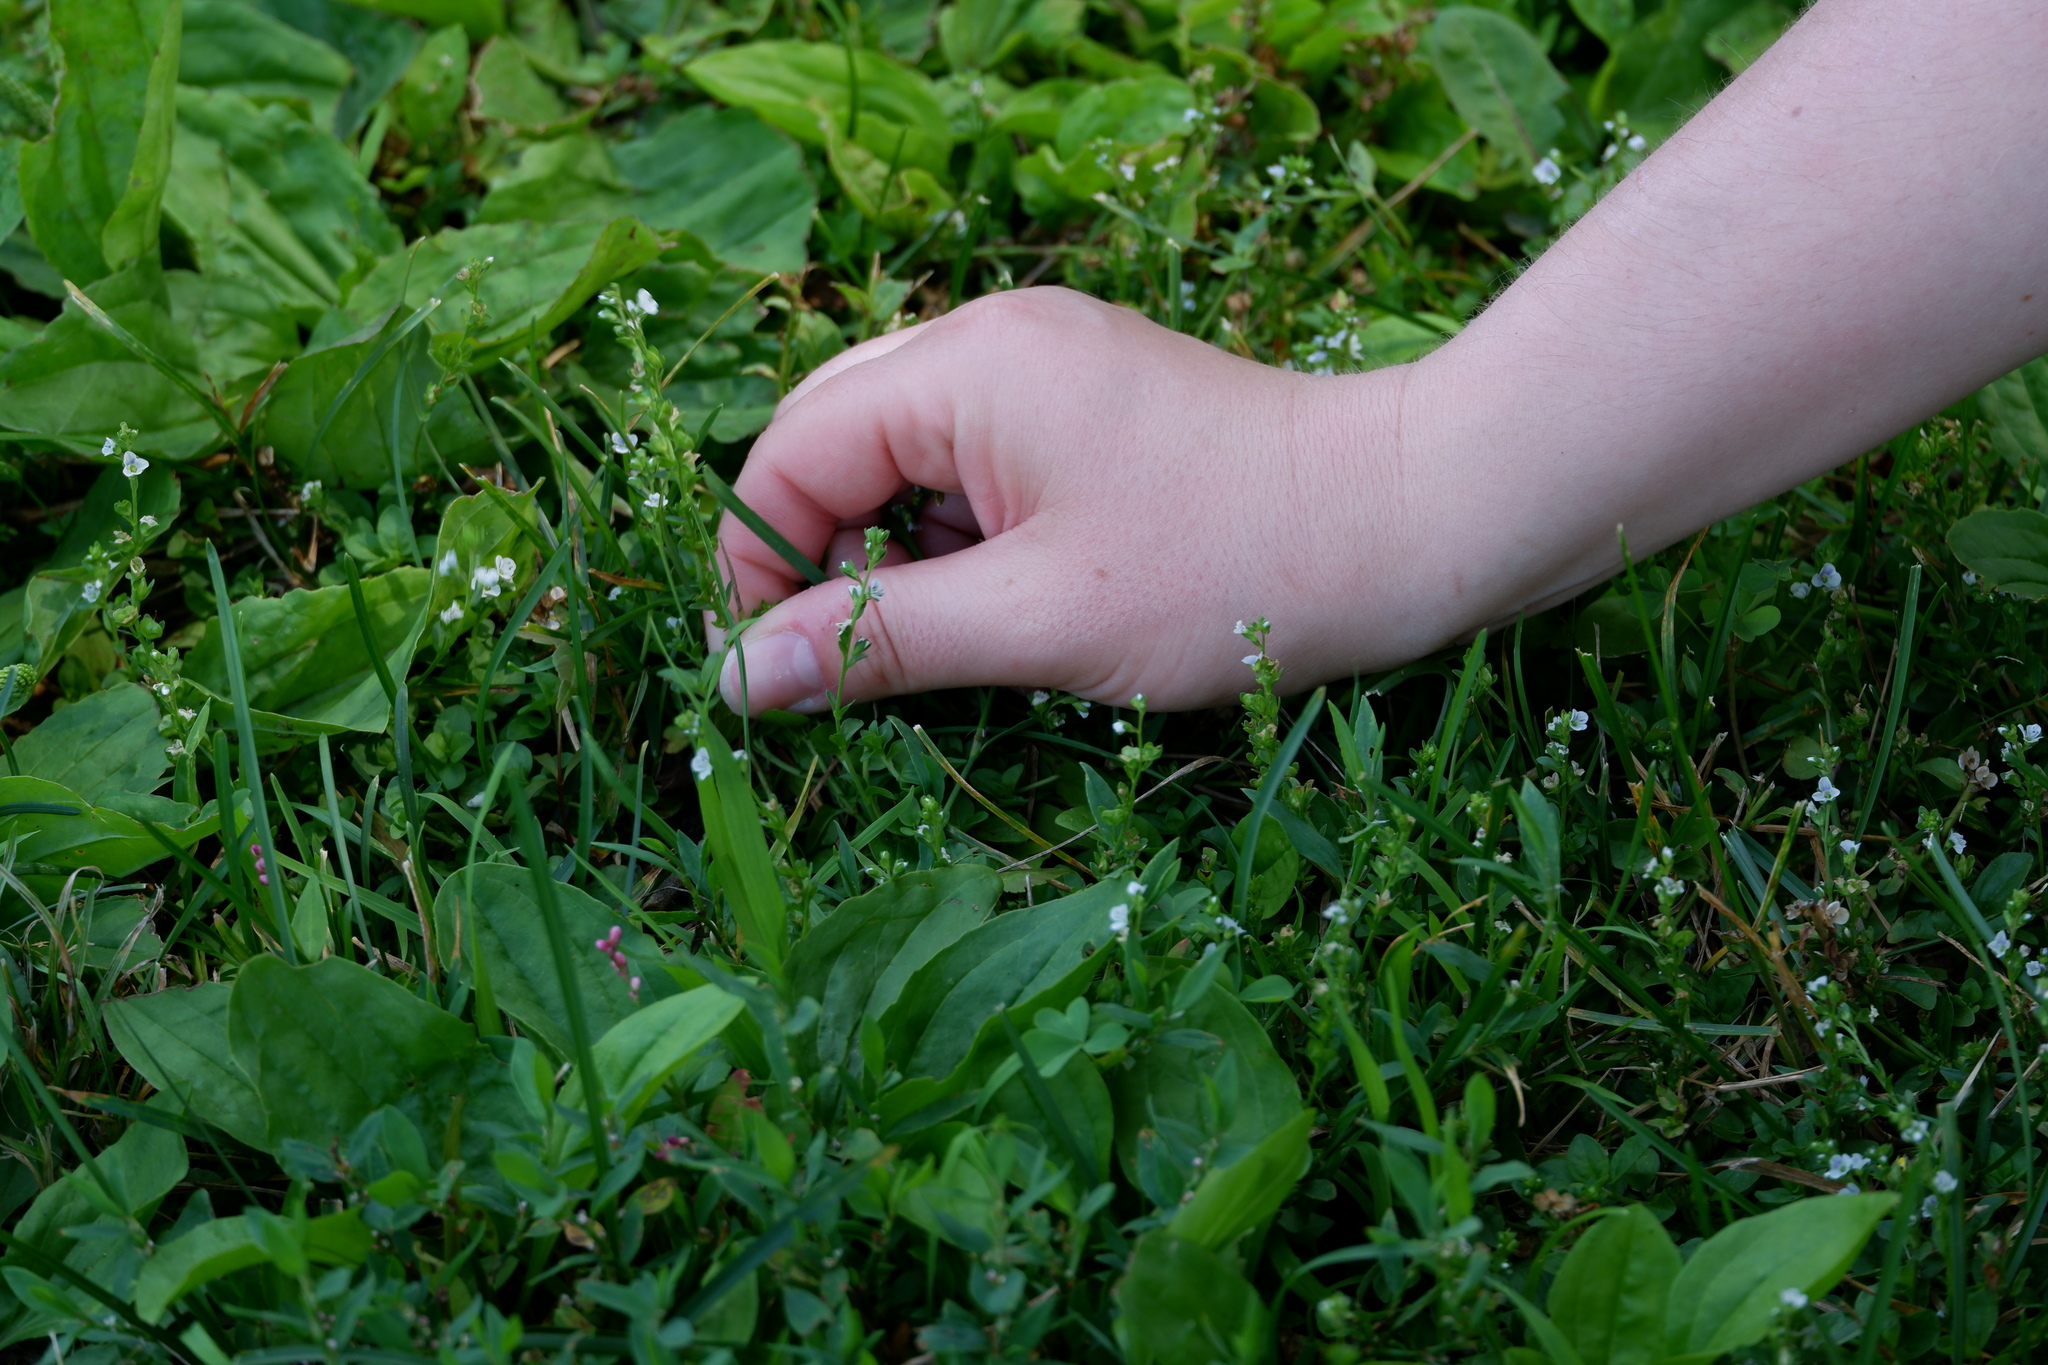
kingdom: Plantae
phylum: Tracheophyta
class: Magnoliopsida
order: Lamiales
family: Plantaginaceae
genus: Veronica
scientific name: Veronica serpyllifolia
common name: Thyme-leaved speedwell
